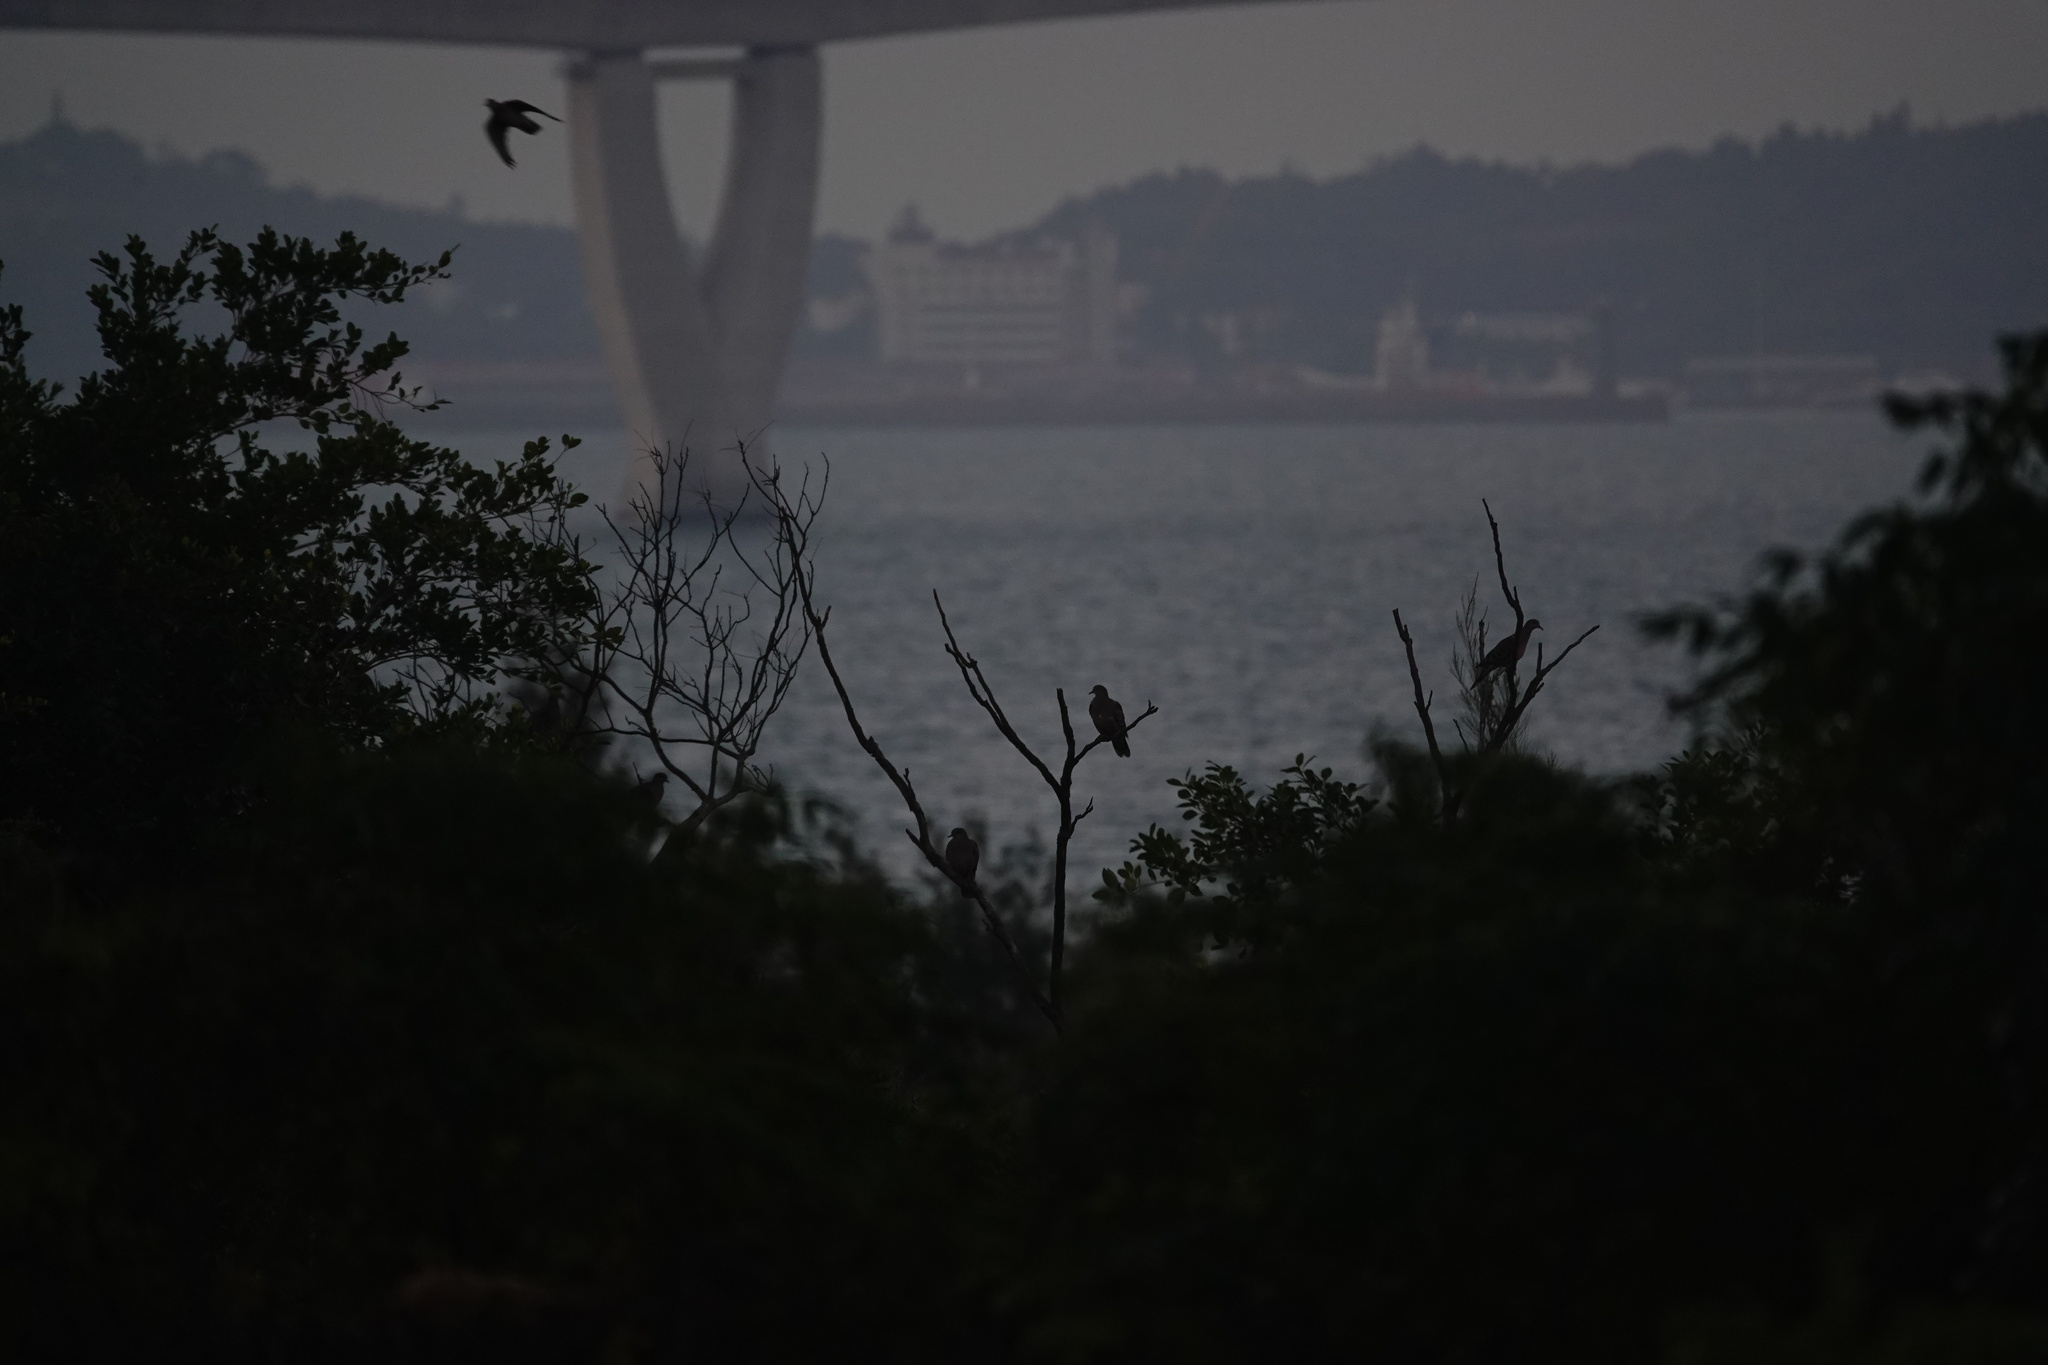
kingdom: Animalia
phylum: Chordata
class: Aves
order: Columbiformes
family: Columbidae
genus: Streptopelia
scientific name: Streptopelia orientalis
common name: Oriental turtle dove
